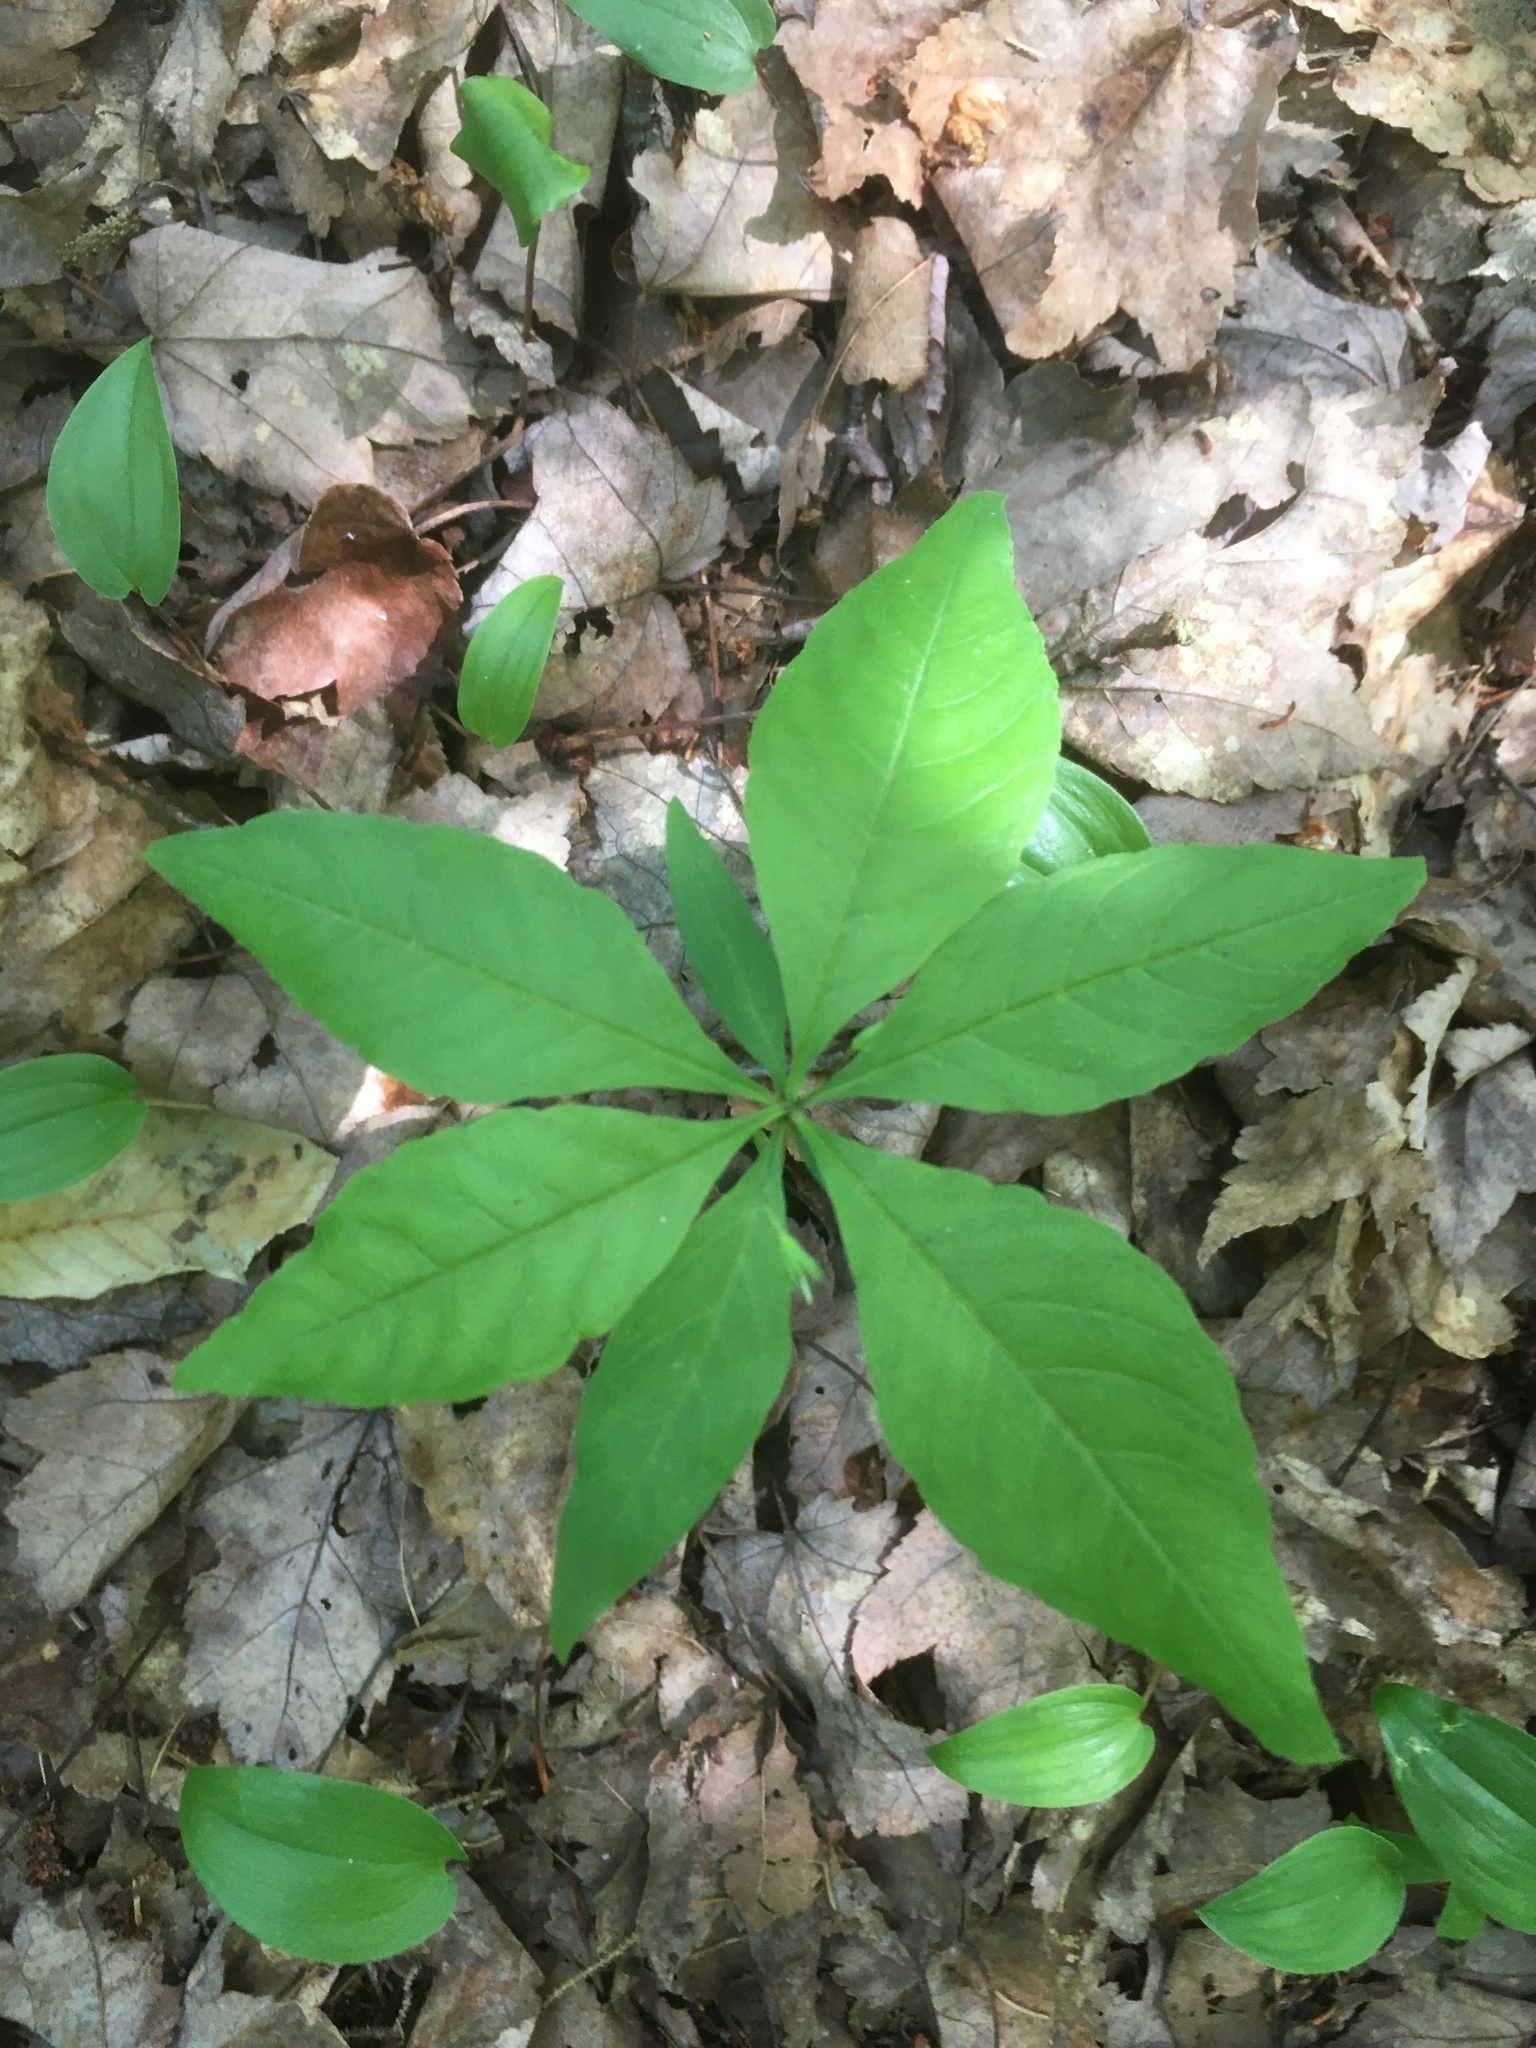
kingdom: Plantae
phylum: Tracheophyta
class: Magnoliopsida
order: Ericales
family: Primulaceae
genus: Lysimachia
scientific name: Lysimachia borealis
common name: American starflower
